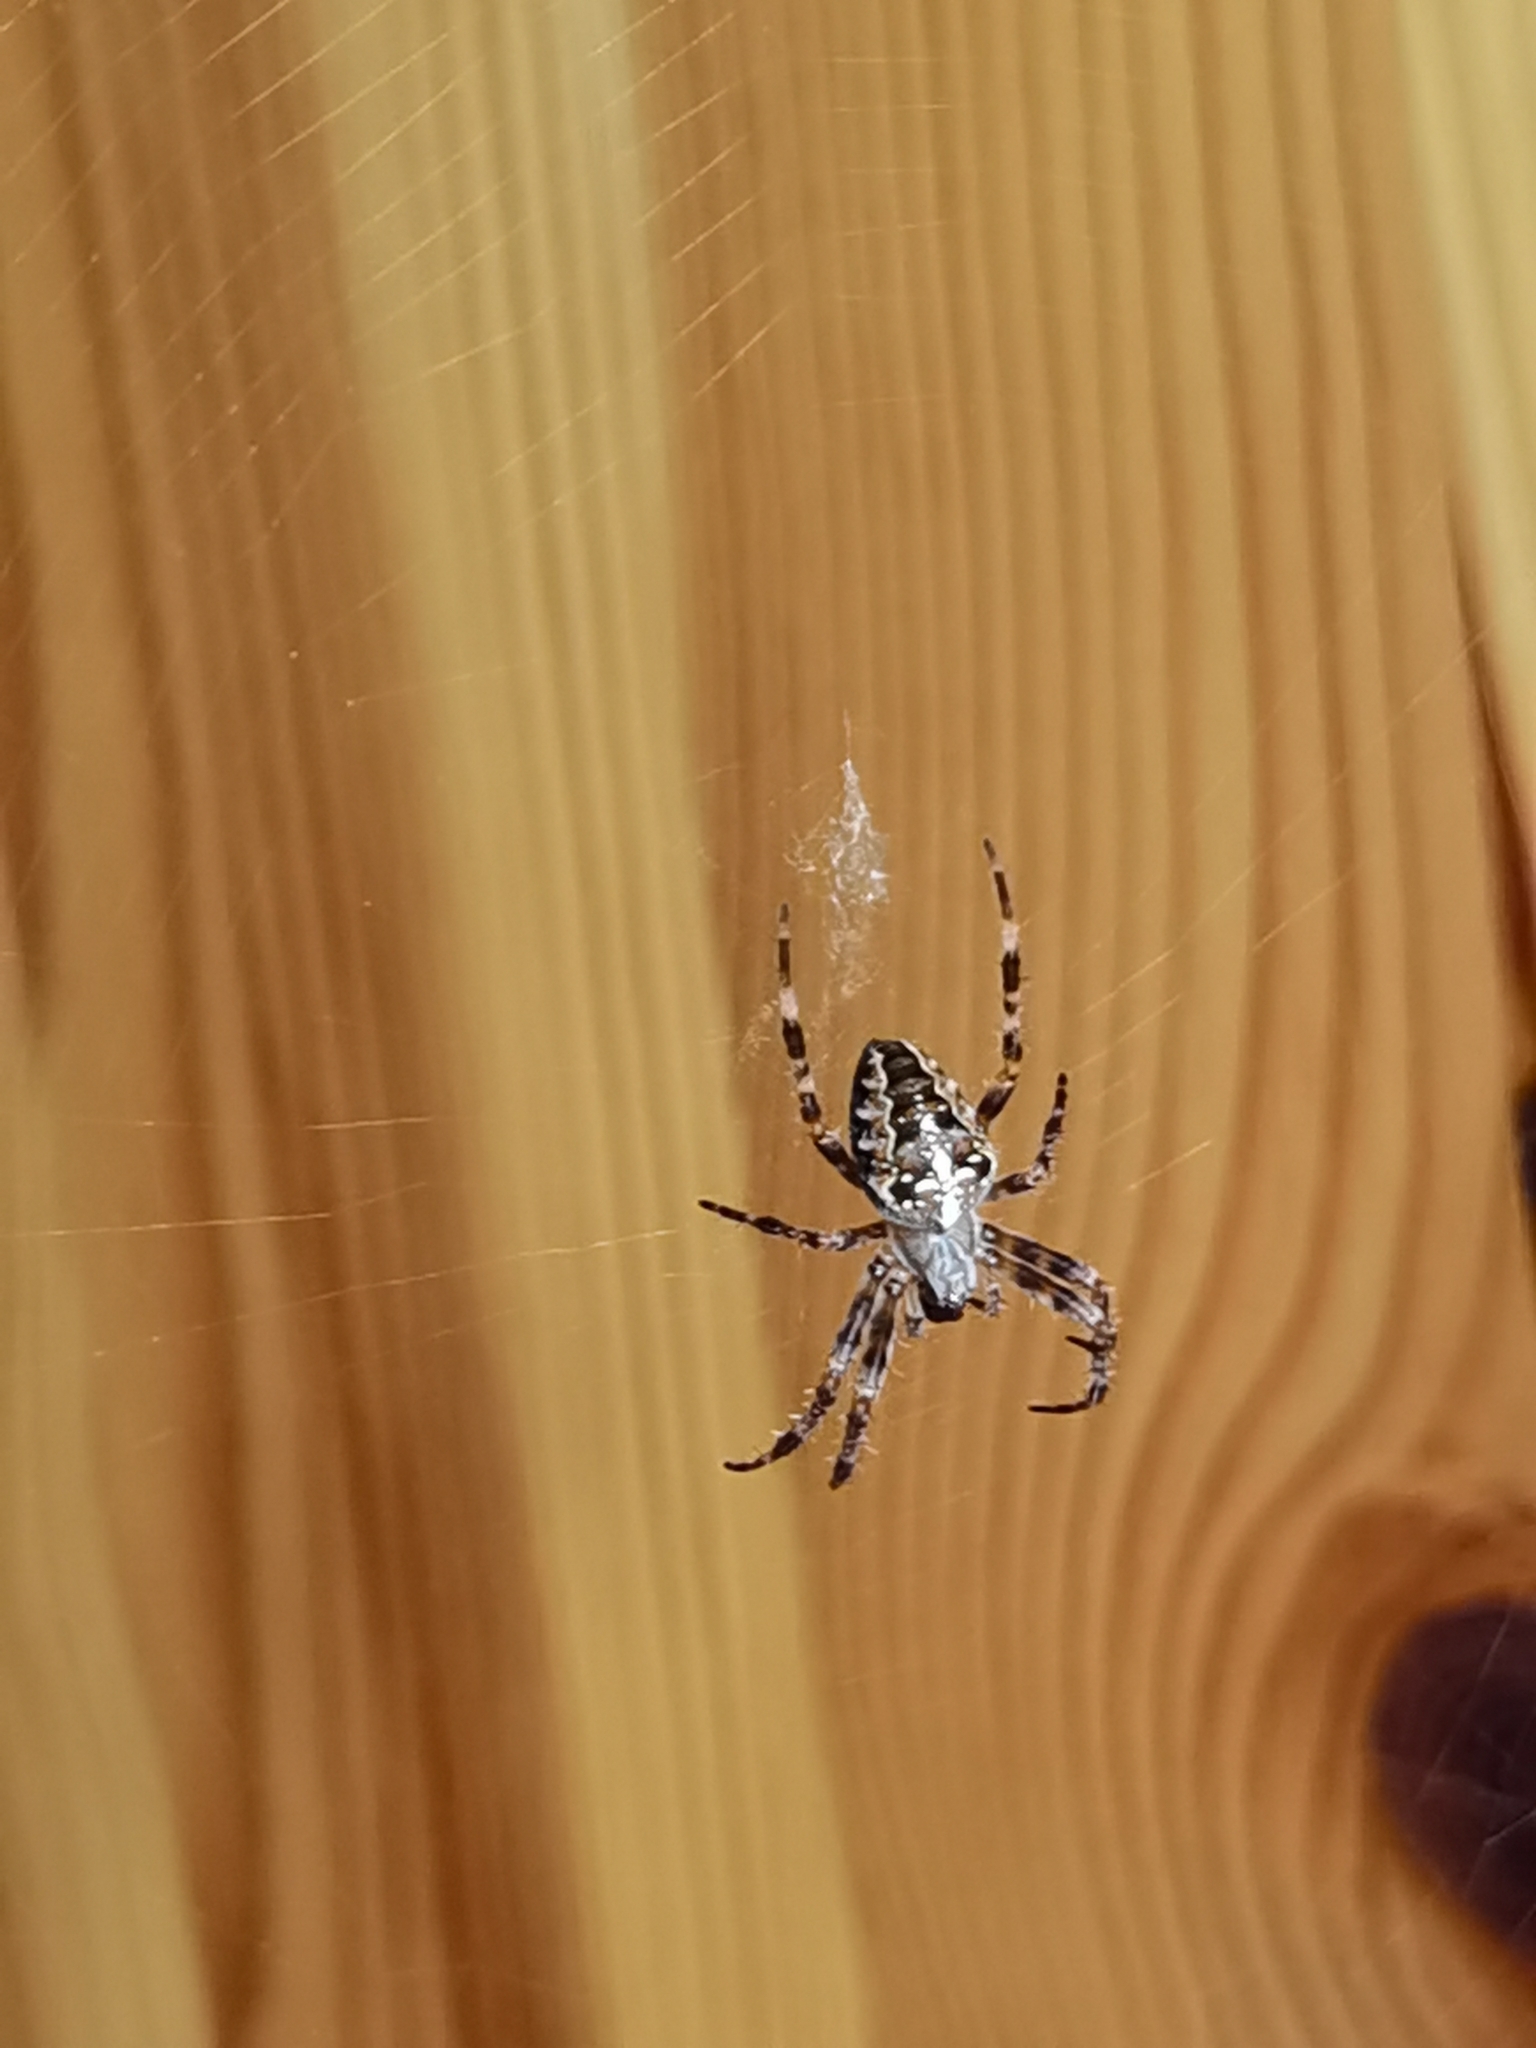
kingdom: Animalia
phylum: Arthropoda
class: Arachnida
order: Araneae
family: Araneidae
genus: Araneus
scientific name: Araneus diadematus
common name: Cross orbweaver
